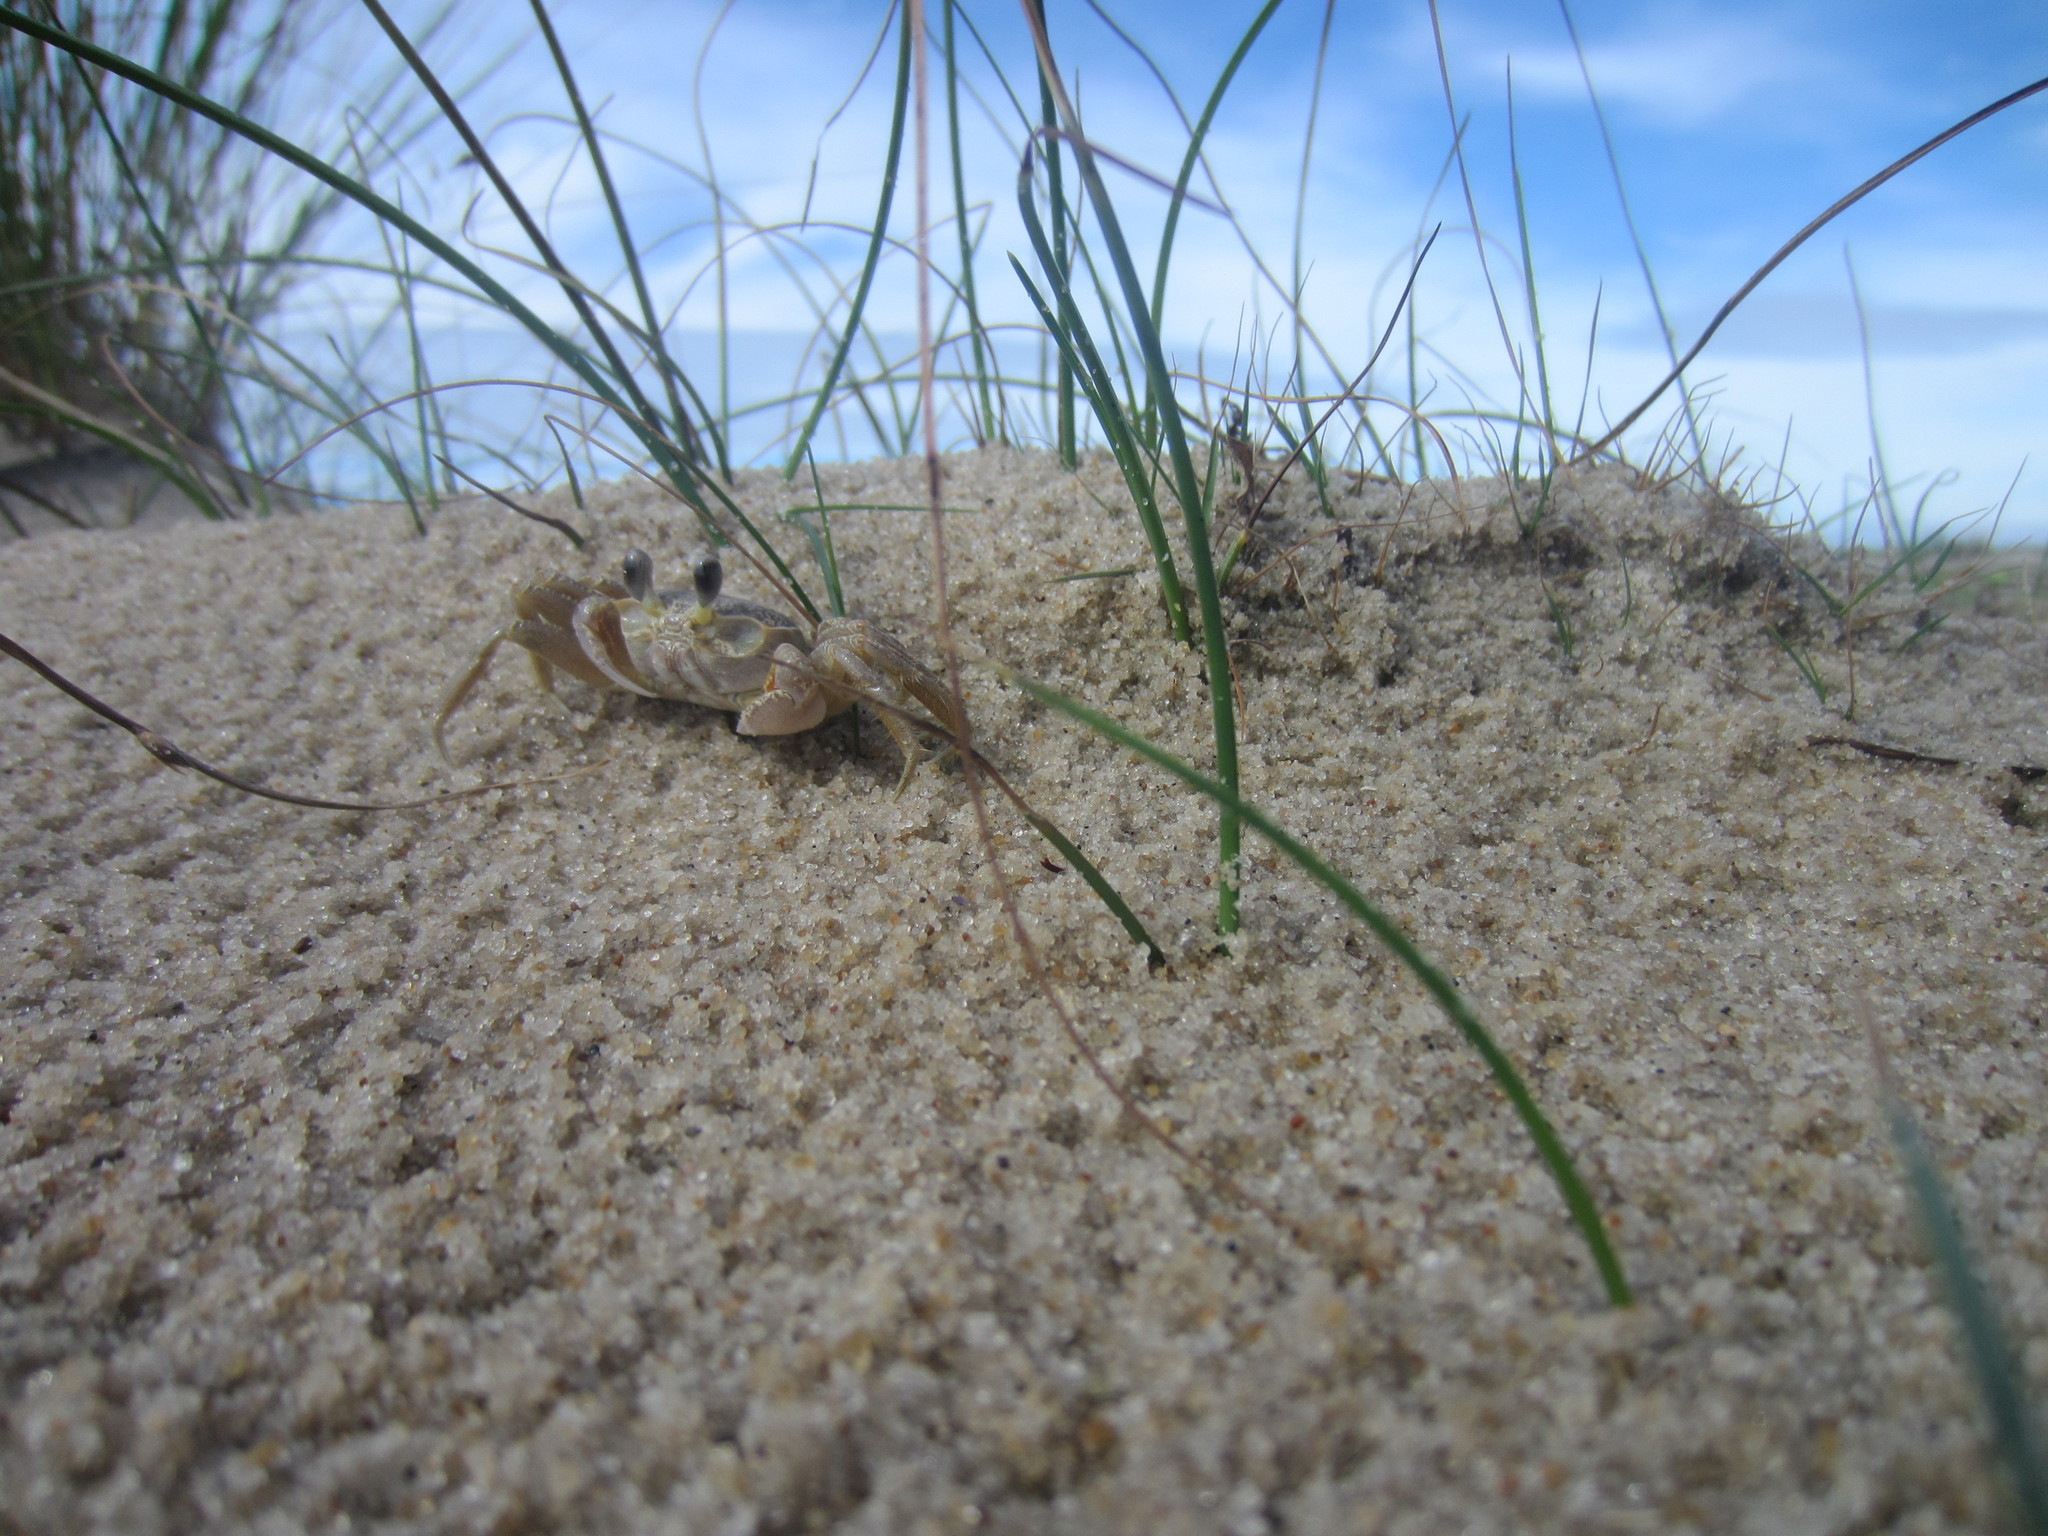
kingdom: Animalia
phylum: Arthropoda
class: Malacostraca
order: Decapoda
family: Ocypodidae
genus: Ocypode
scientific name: Ocypode quadrata
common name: Ghost crab
